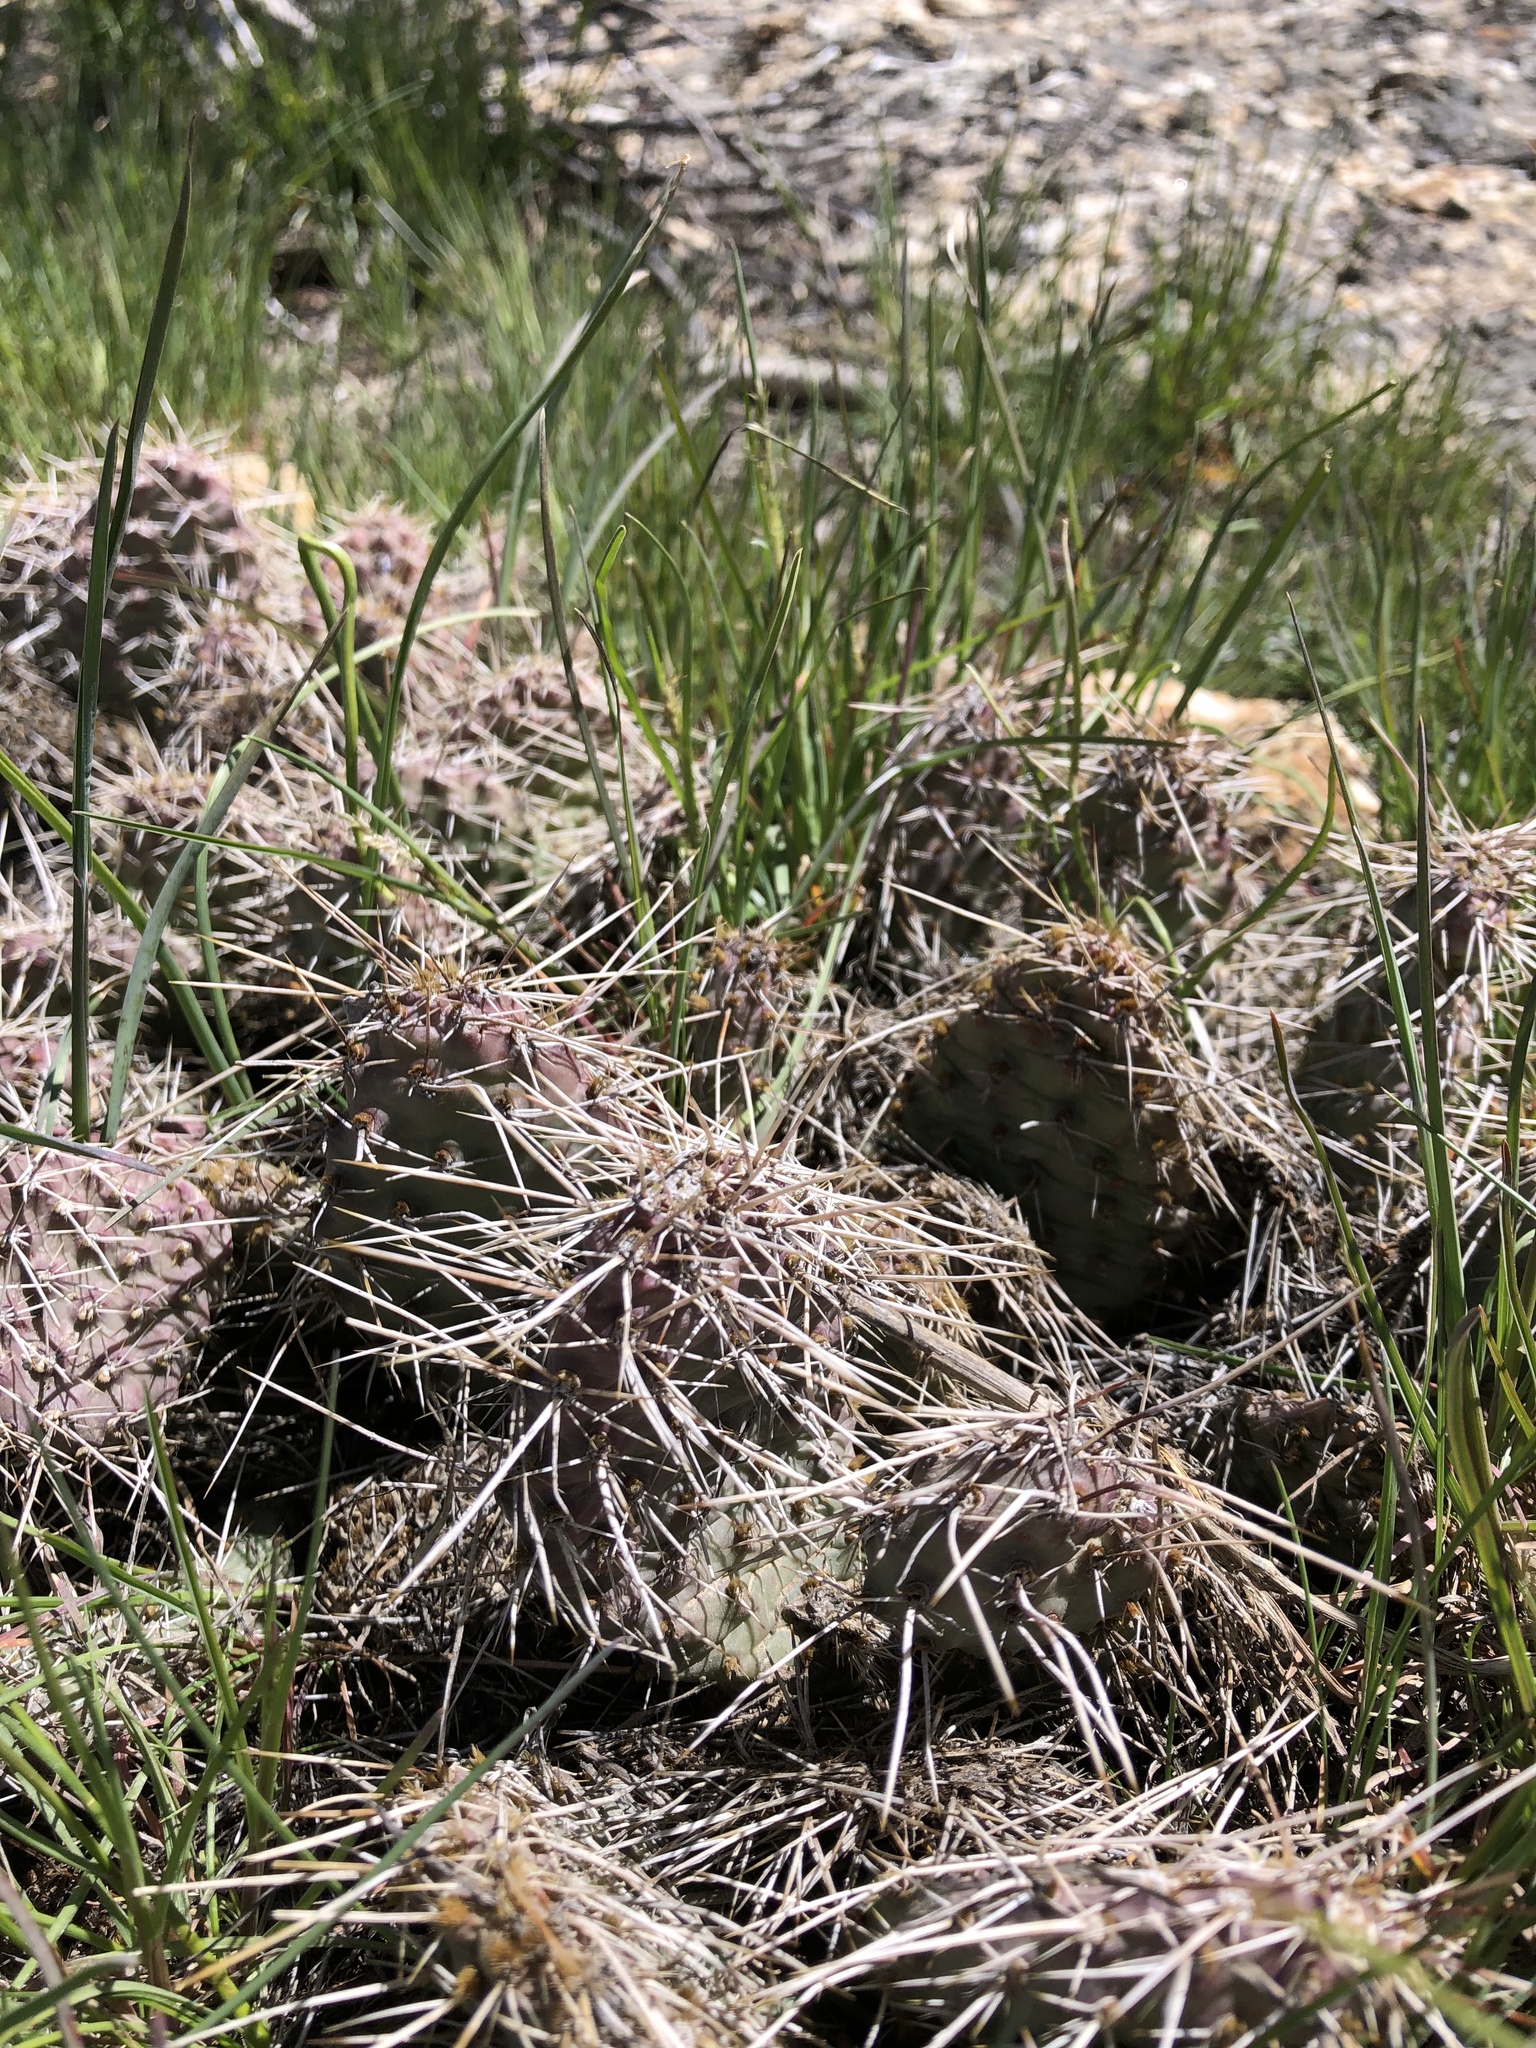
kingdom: Plantae
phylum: Tracheophyta
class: Magnoliopsida
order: Caryophyllales
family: Cactaceae
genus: Opuntia
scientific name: Opuntia polyacantha
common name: Plains prickly-pear
